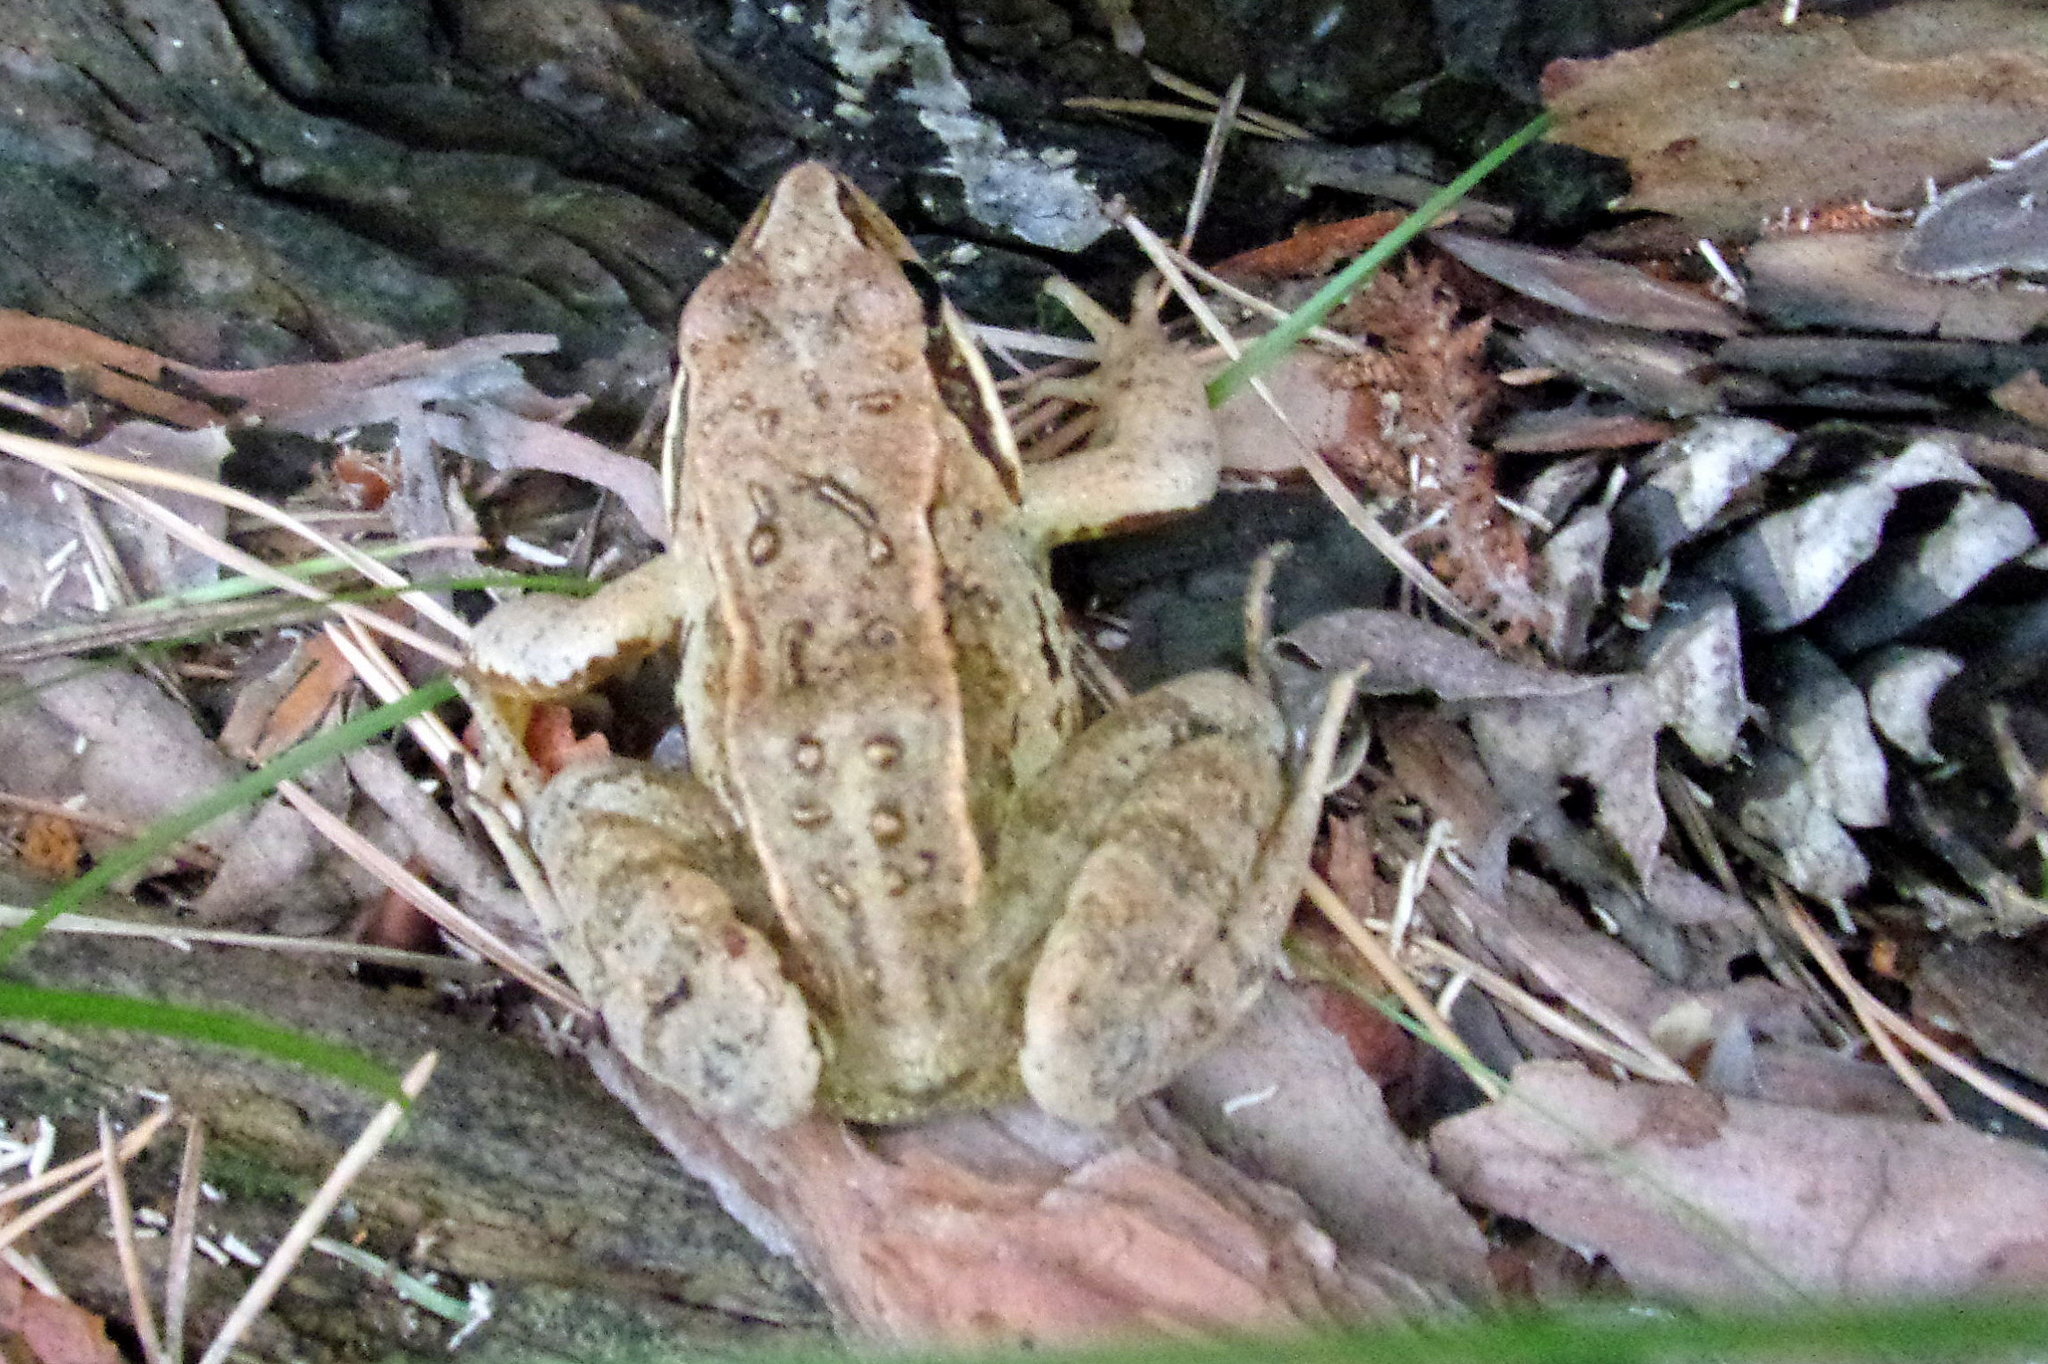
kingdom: Animalia
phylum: Chordata
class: Amphibia
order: Anura
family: Ranidae
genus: Rana
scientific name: Rana arvalis
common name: Moor frog
